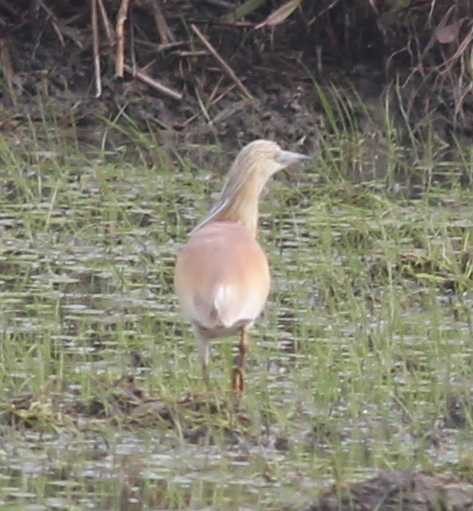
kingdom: Animalia
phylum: Chordata
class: Aves
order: Pelecaniformes
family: Ardeidae
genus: Ardeola
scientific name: Ardeola ralloides
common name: Squacco heron
